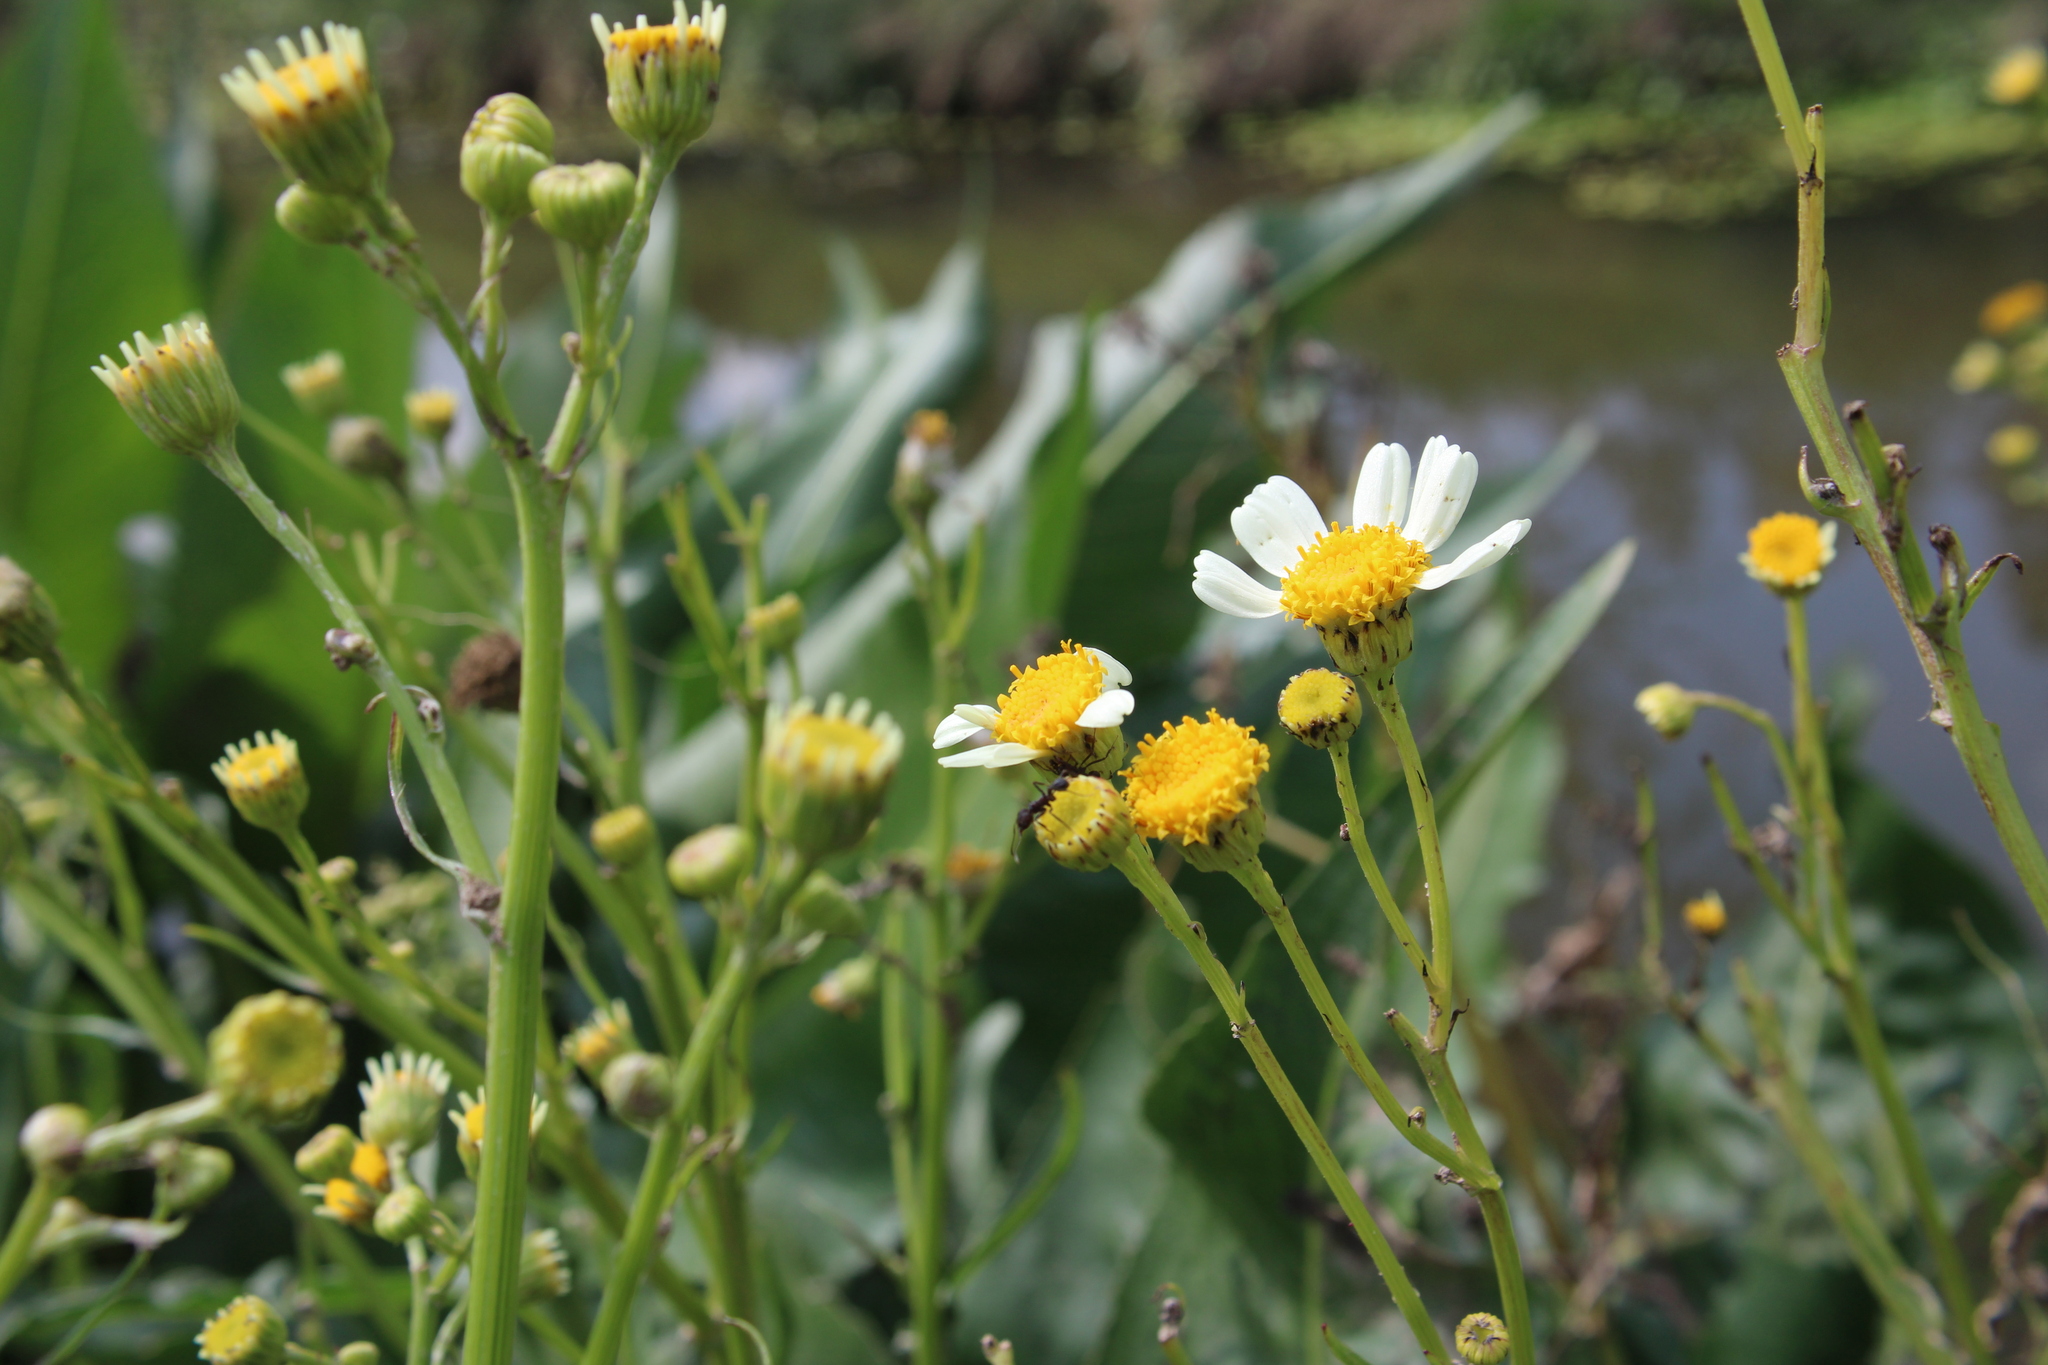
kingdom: Plantae
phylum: Tracheophyta
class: Magnoliopsida
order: Asterales
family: Asteraceae
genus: Senecio
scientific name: Senecio bonariensis
